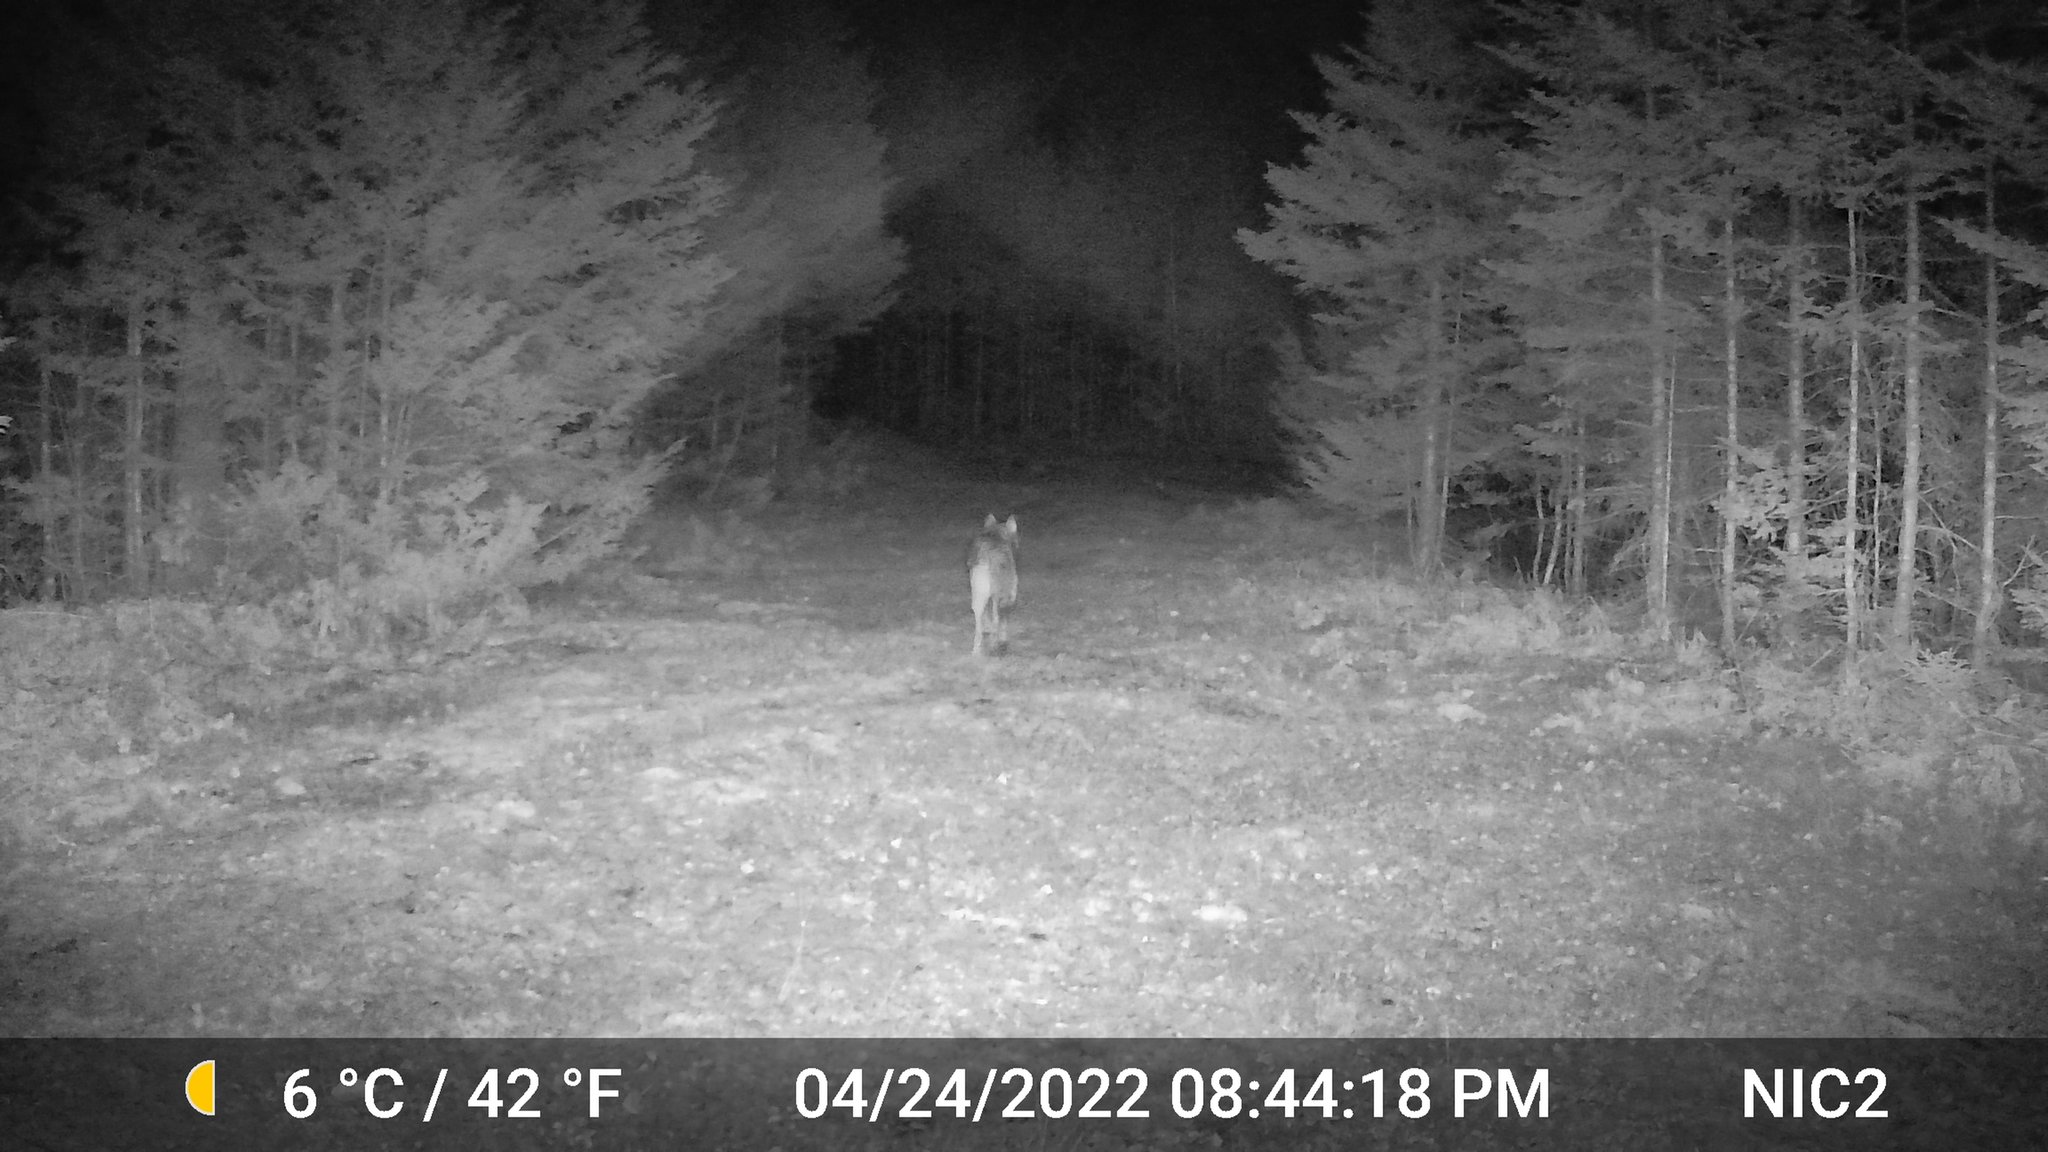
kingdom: Animalia
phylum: Chordata
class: Mammalia
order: Carnivora
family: Canidae
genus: Canis
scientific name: Canis latrans
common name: Coyote
